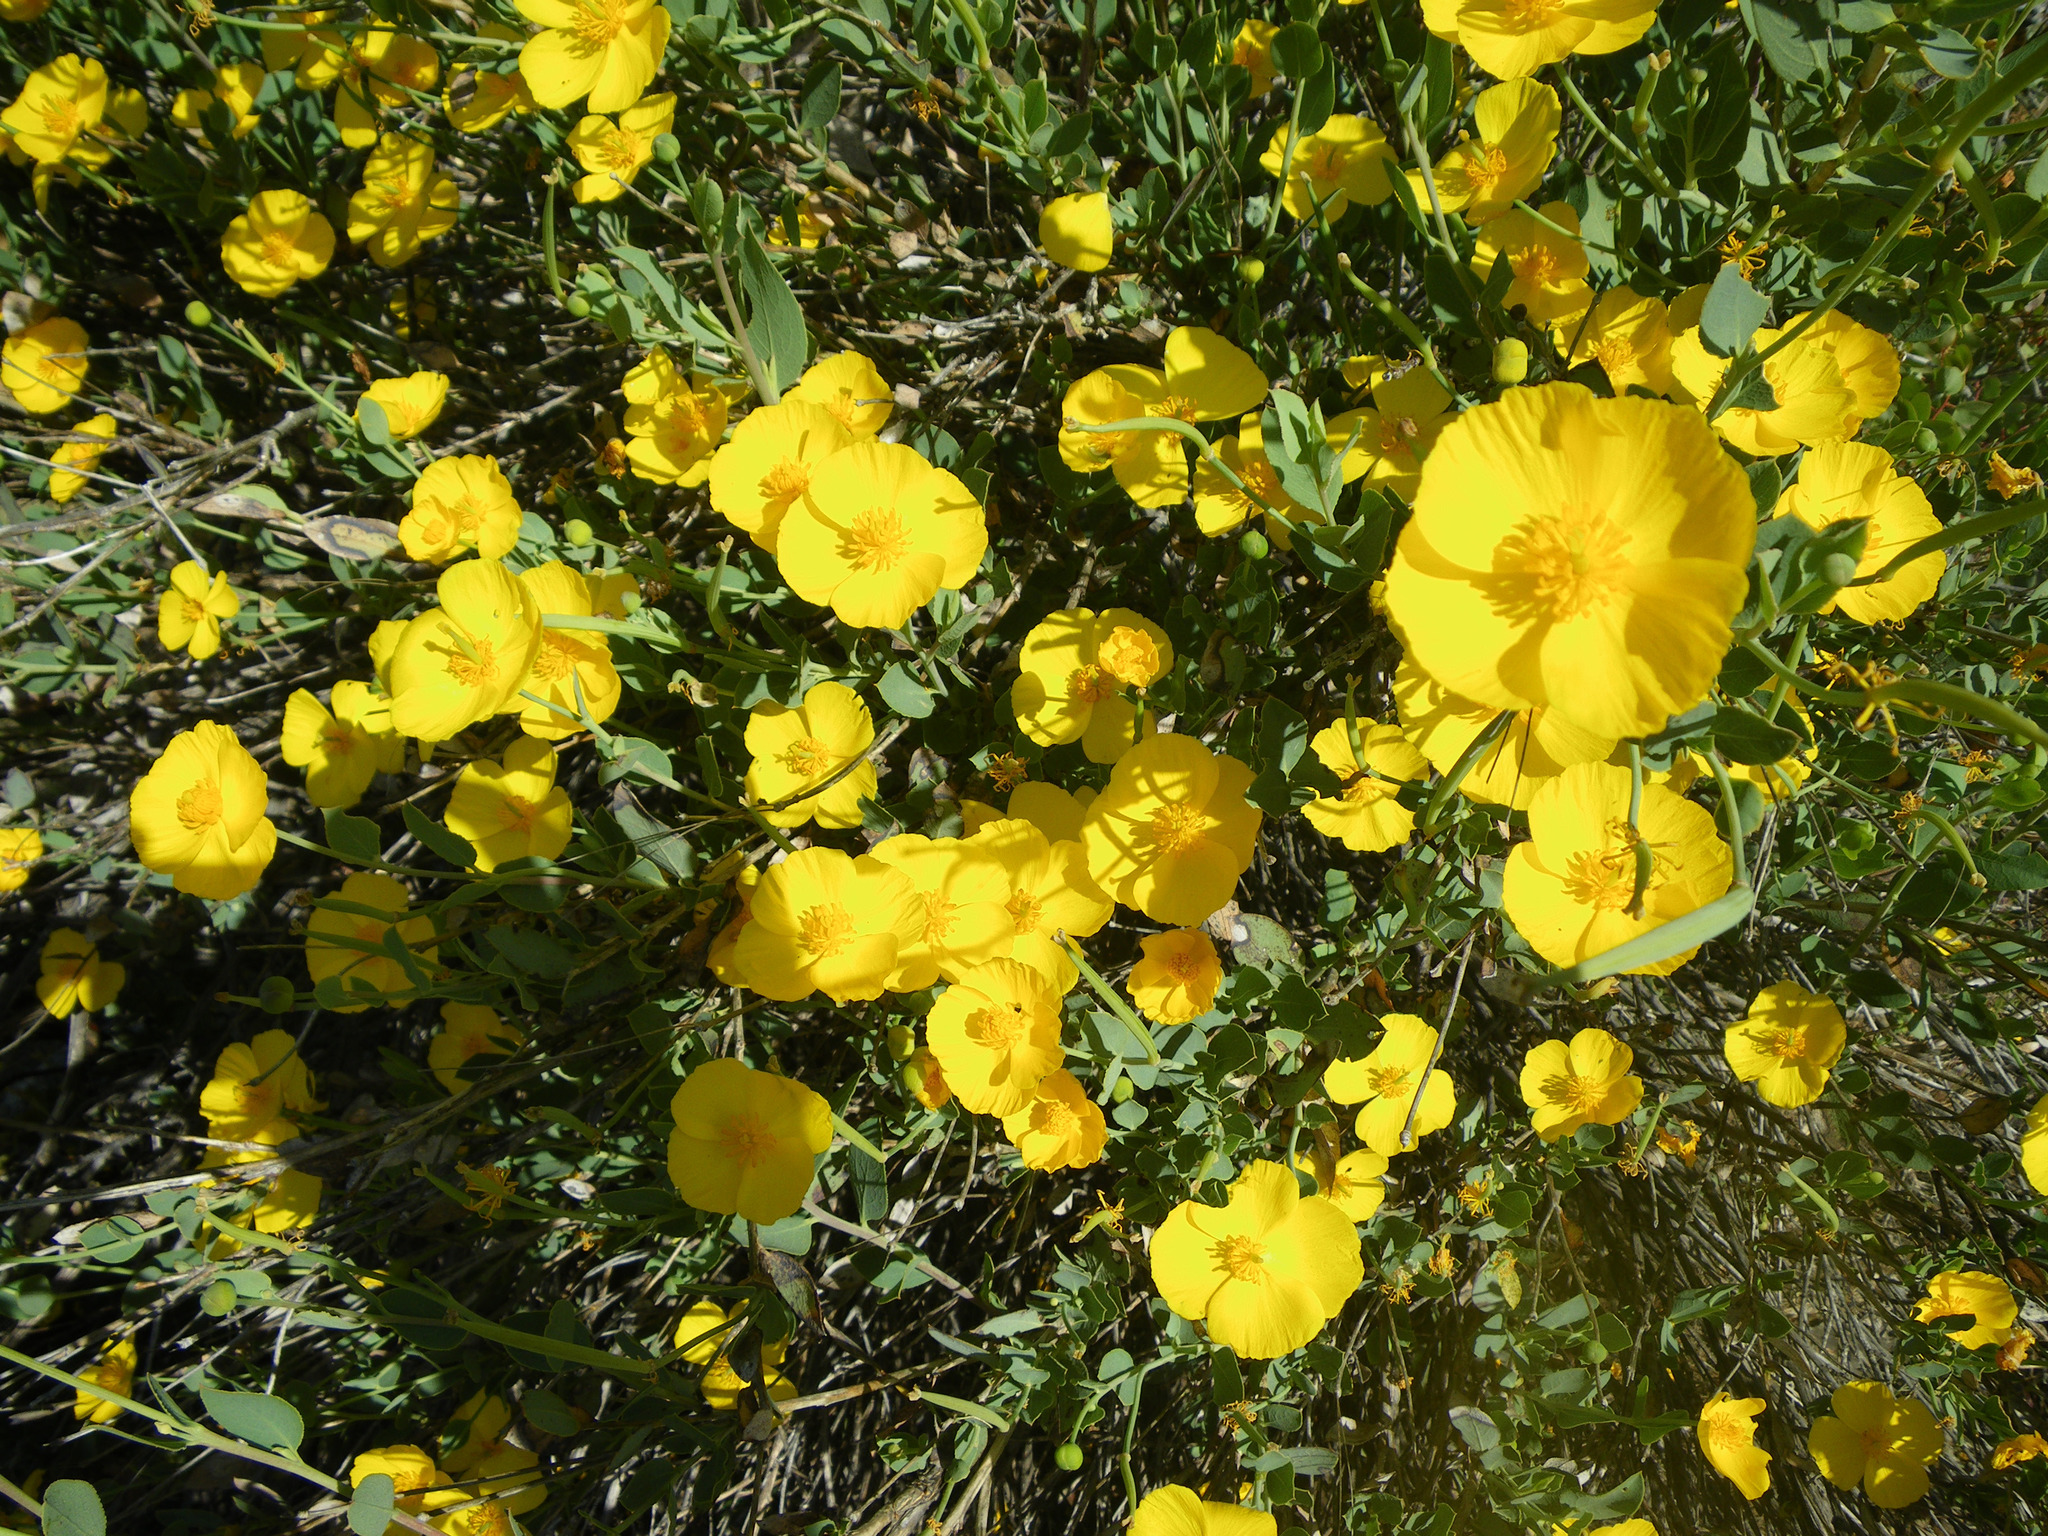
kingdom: Plantae
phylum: Tracheophyta
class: Magnoliopsida
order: Ranunculales
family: Papaveraceae
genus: Dendromecon
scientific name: Dendromecon rigida
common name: Tree poppy
